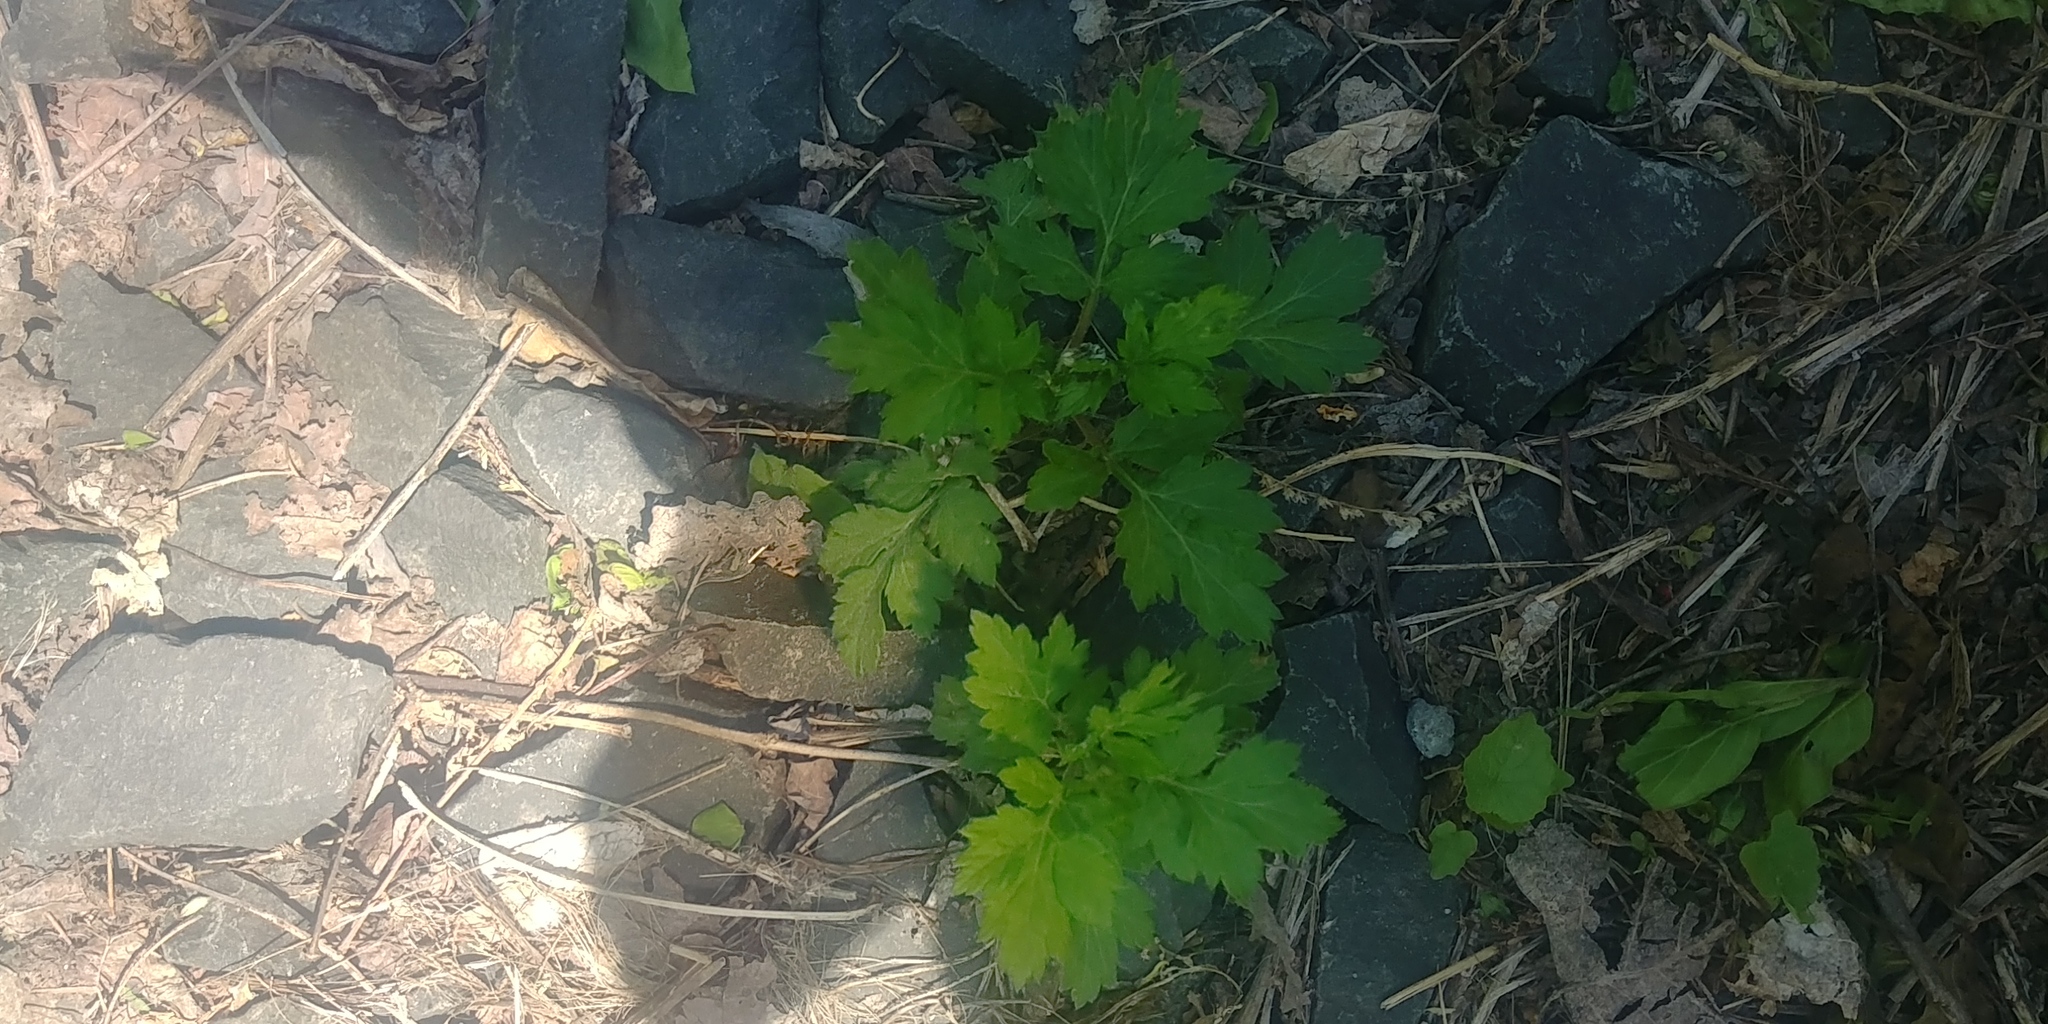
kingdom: Plantae
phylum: Tracheophyta
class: Magnoliopsida
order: Asterales
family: Asteraceae
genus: Artemisia
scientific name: Artemisia vulgaris
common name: Mugwort
